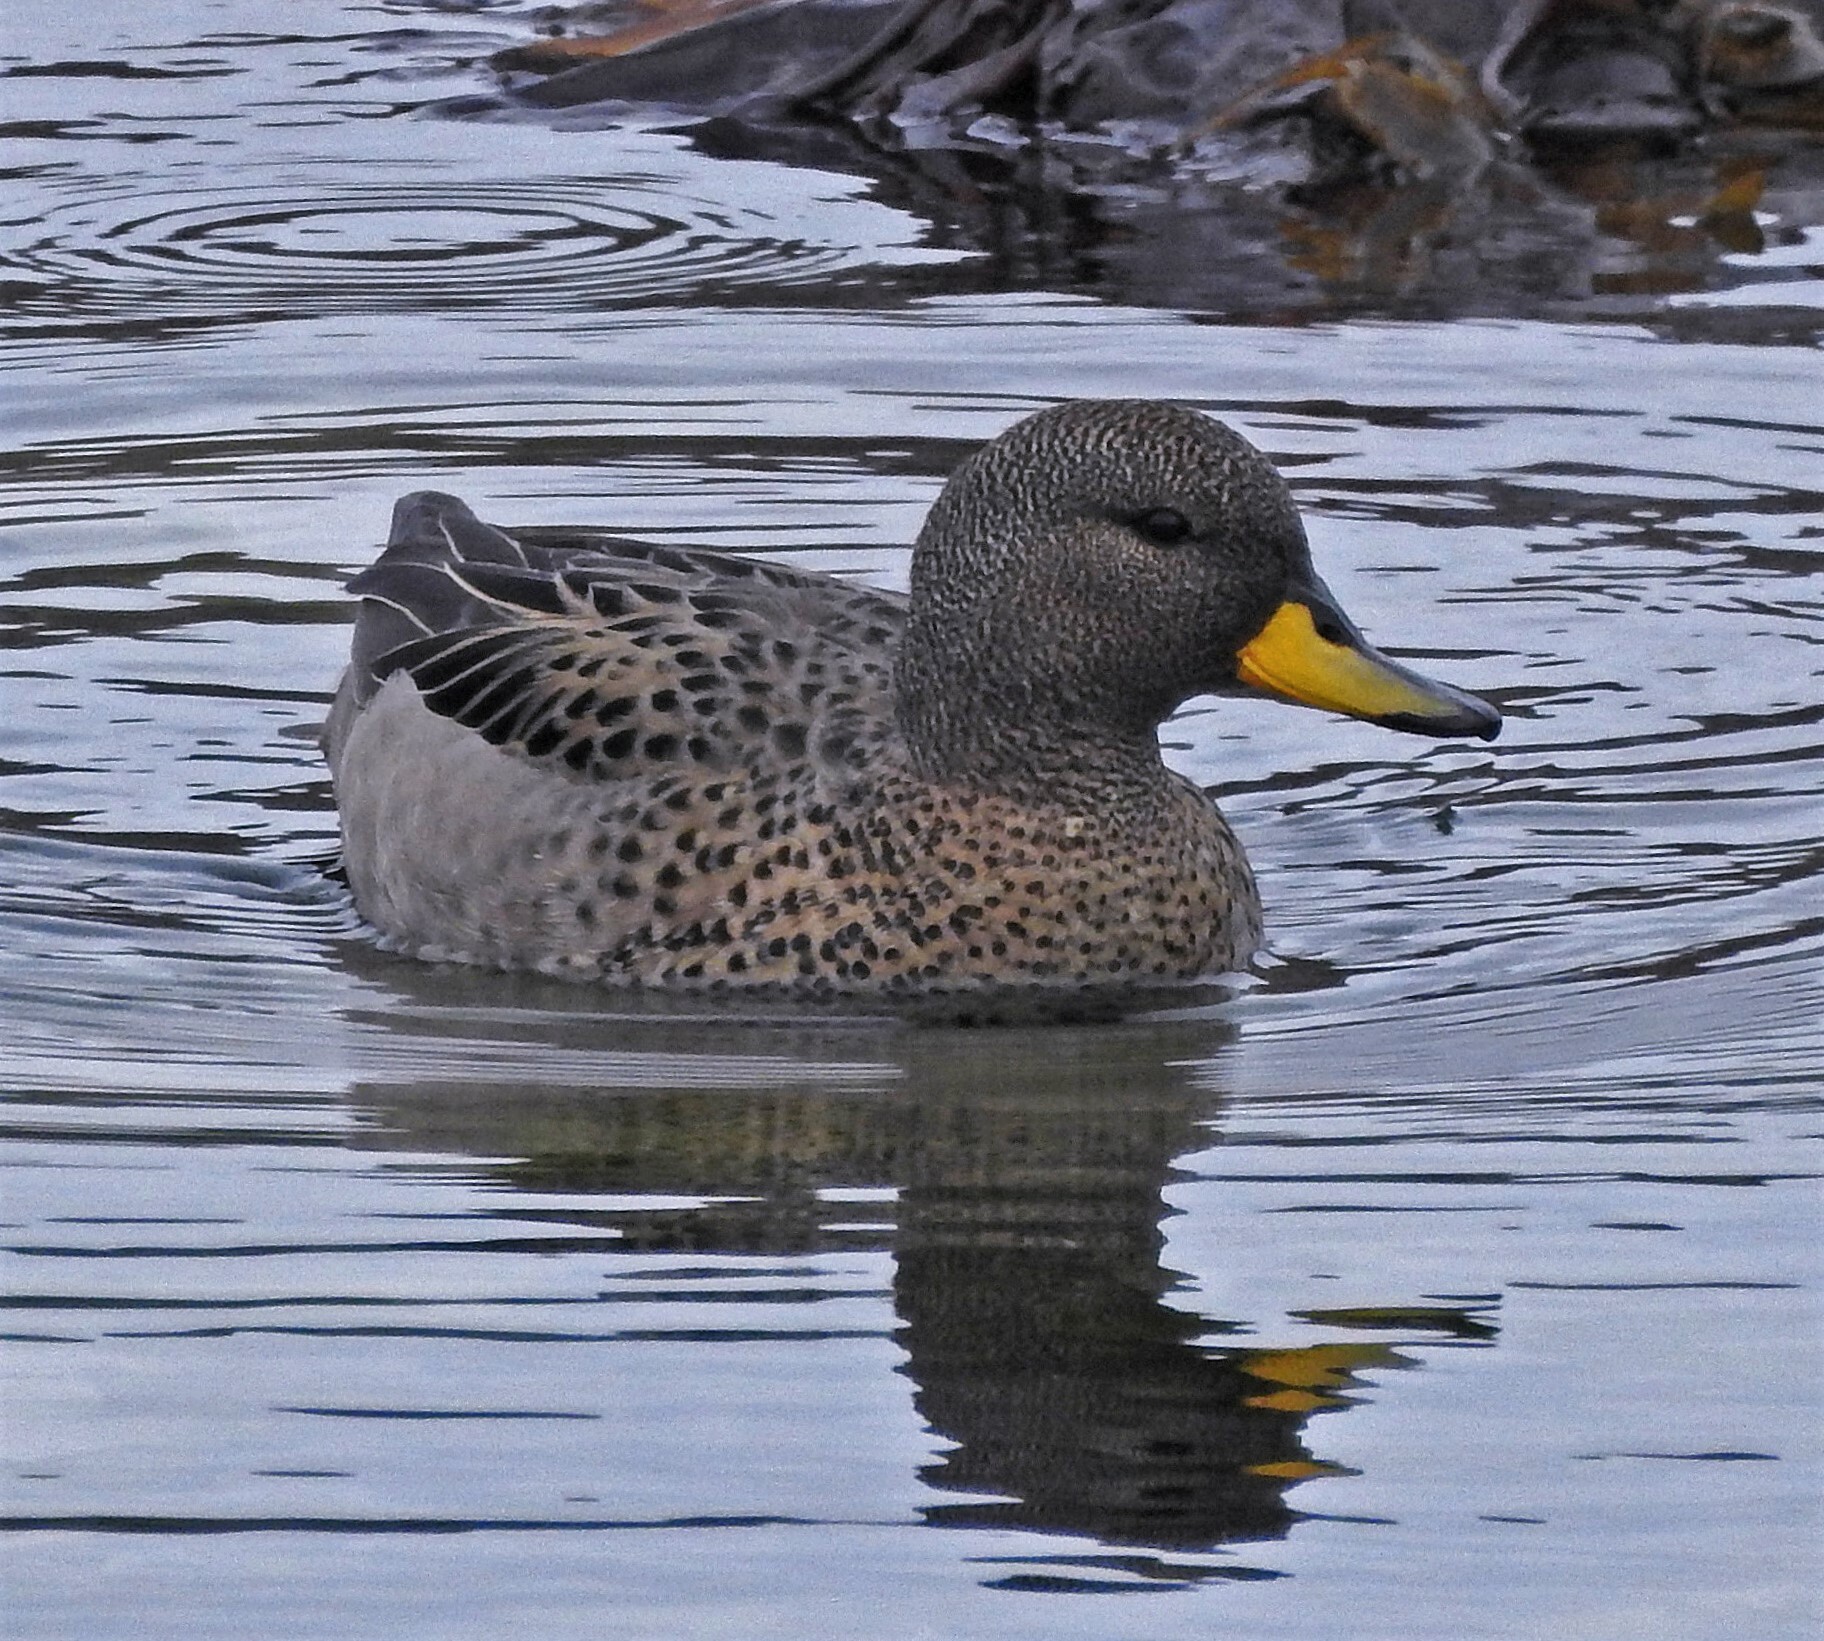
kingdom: Animalia
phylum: Chordata
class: Aves
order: Anseriformes
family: Anatidae
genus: Anas
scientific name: Anas flavirostris
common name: Yellow-billed teal
